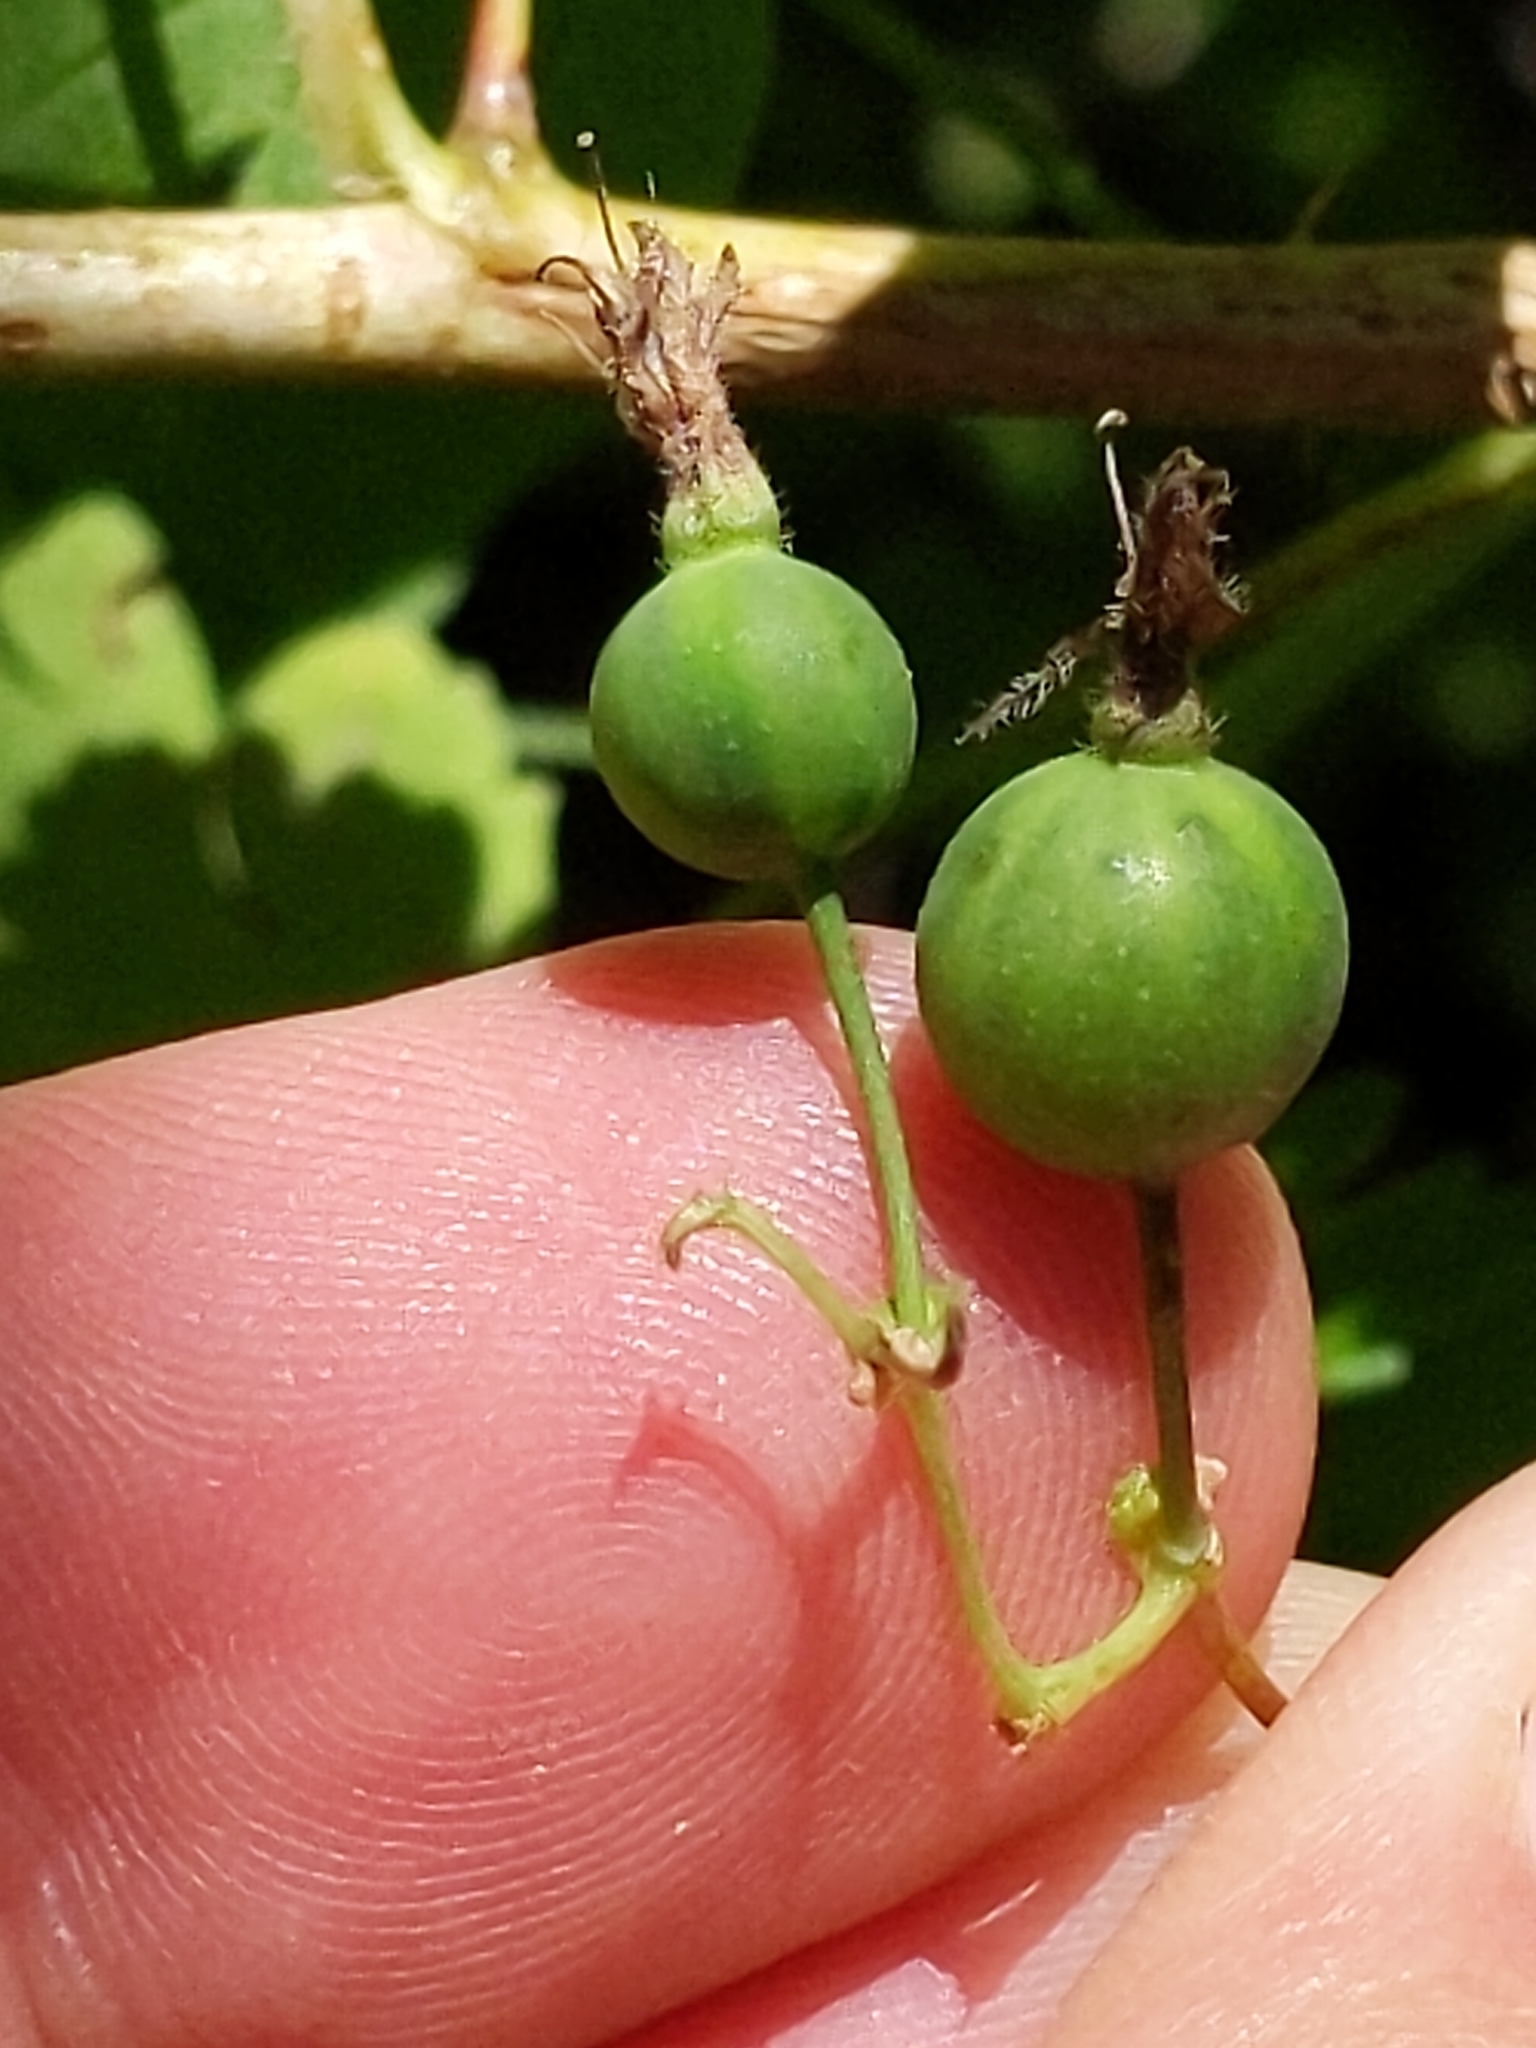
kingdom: Plantae
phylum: Tracheophyta
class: Magnoliopsida
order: Saxifragales
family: Grossulariaceae
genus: Ribes
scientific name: Ribes divaricatum
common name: Wild black gooseberry
